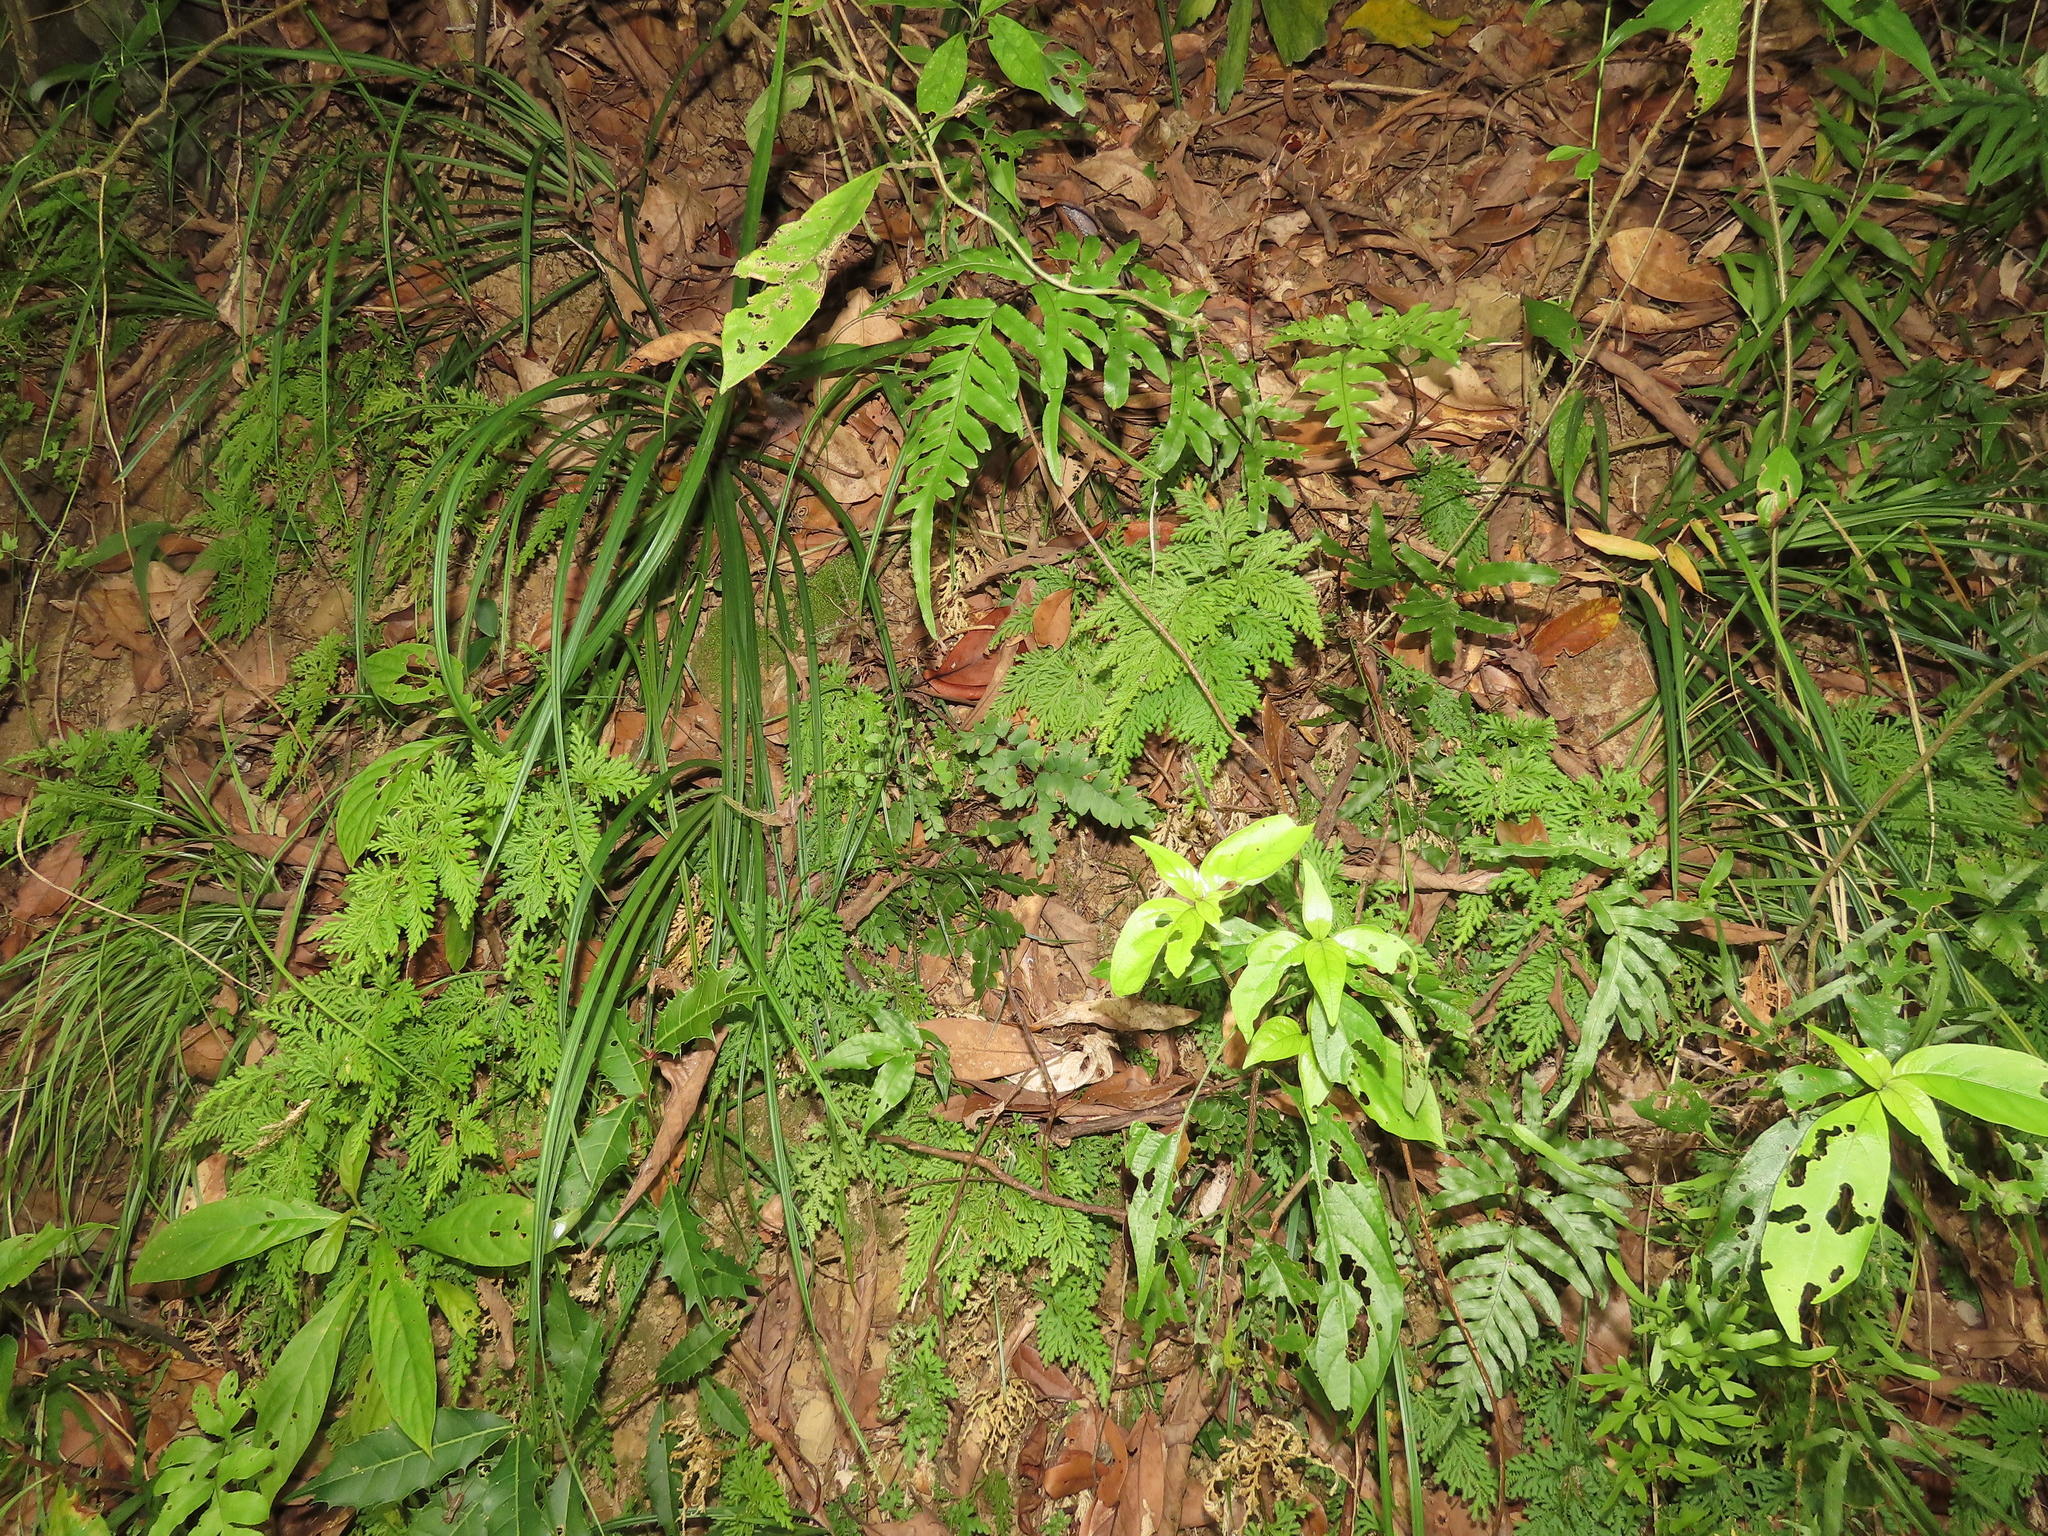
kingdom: Plantae
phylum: Tracheophyta
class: Polypodiopsida
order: Polypodiales
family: Pteridaceae
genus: Adiantum
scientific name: Adiantum flabellulatum
